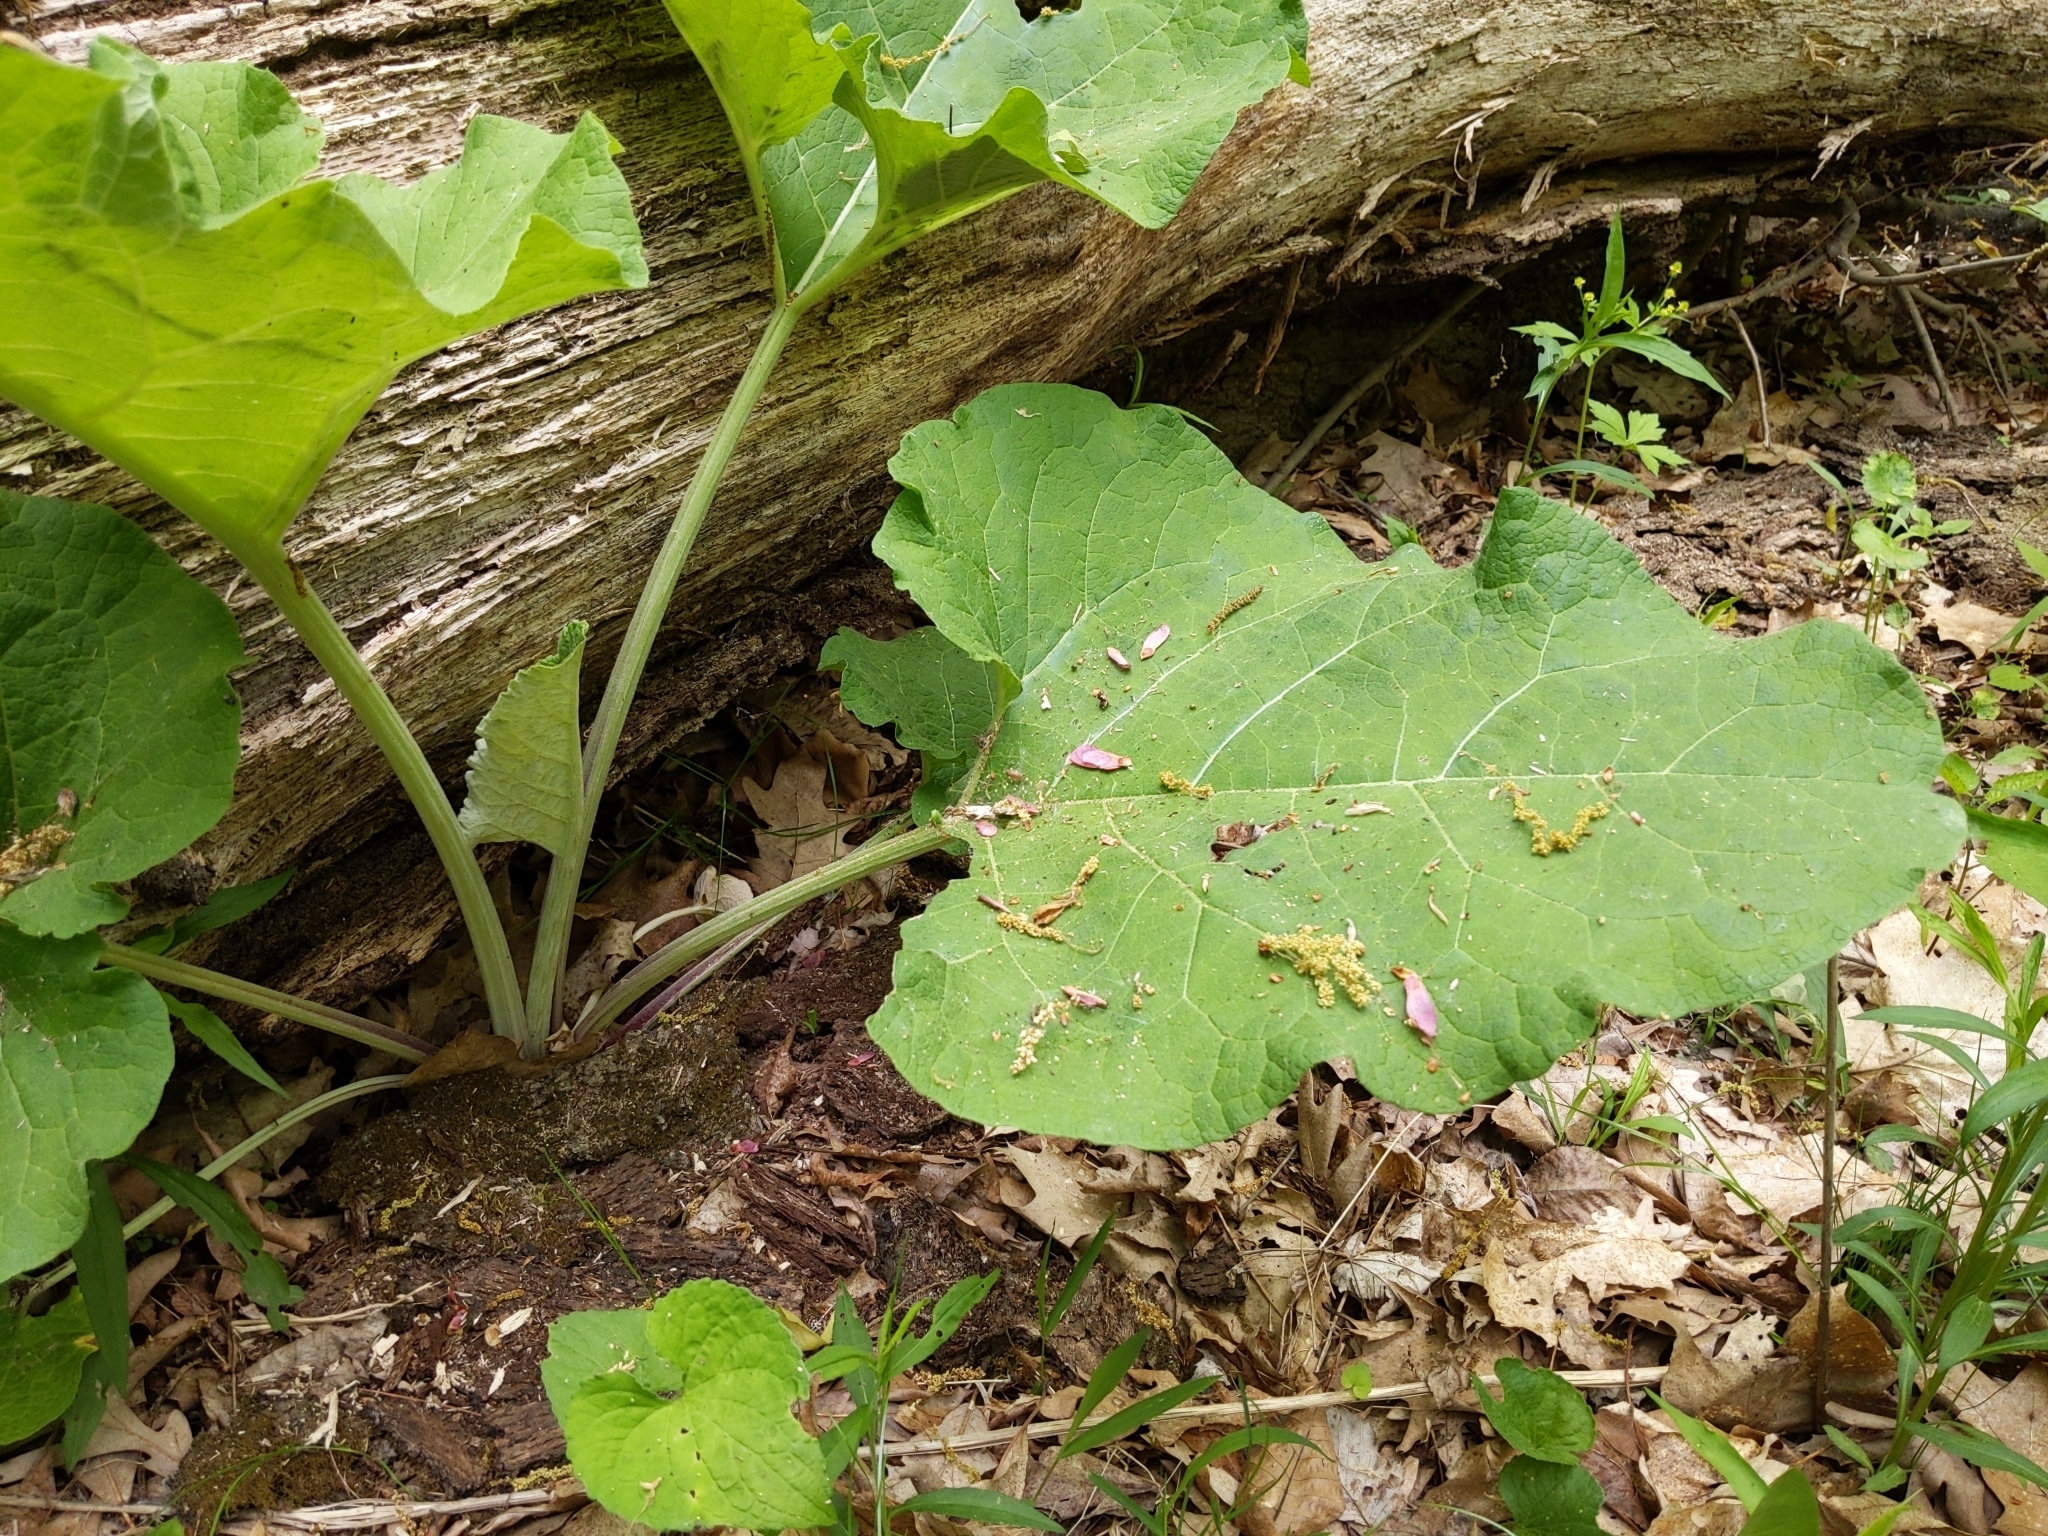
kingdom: Plantae
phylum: Tracheophyta
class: Magnoliopsida
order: Asterales
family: Asteraceae
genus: Arctium
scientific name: Arctium
